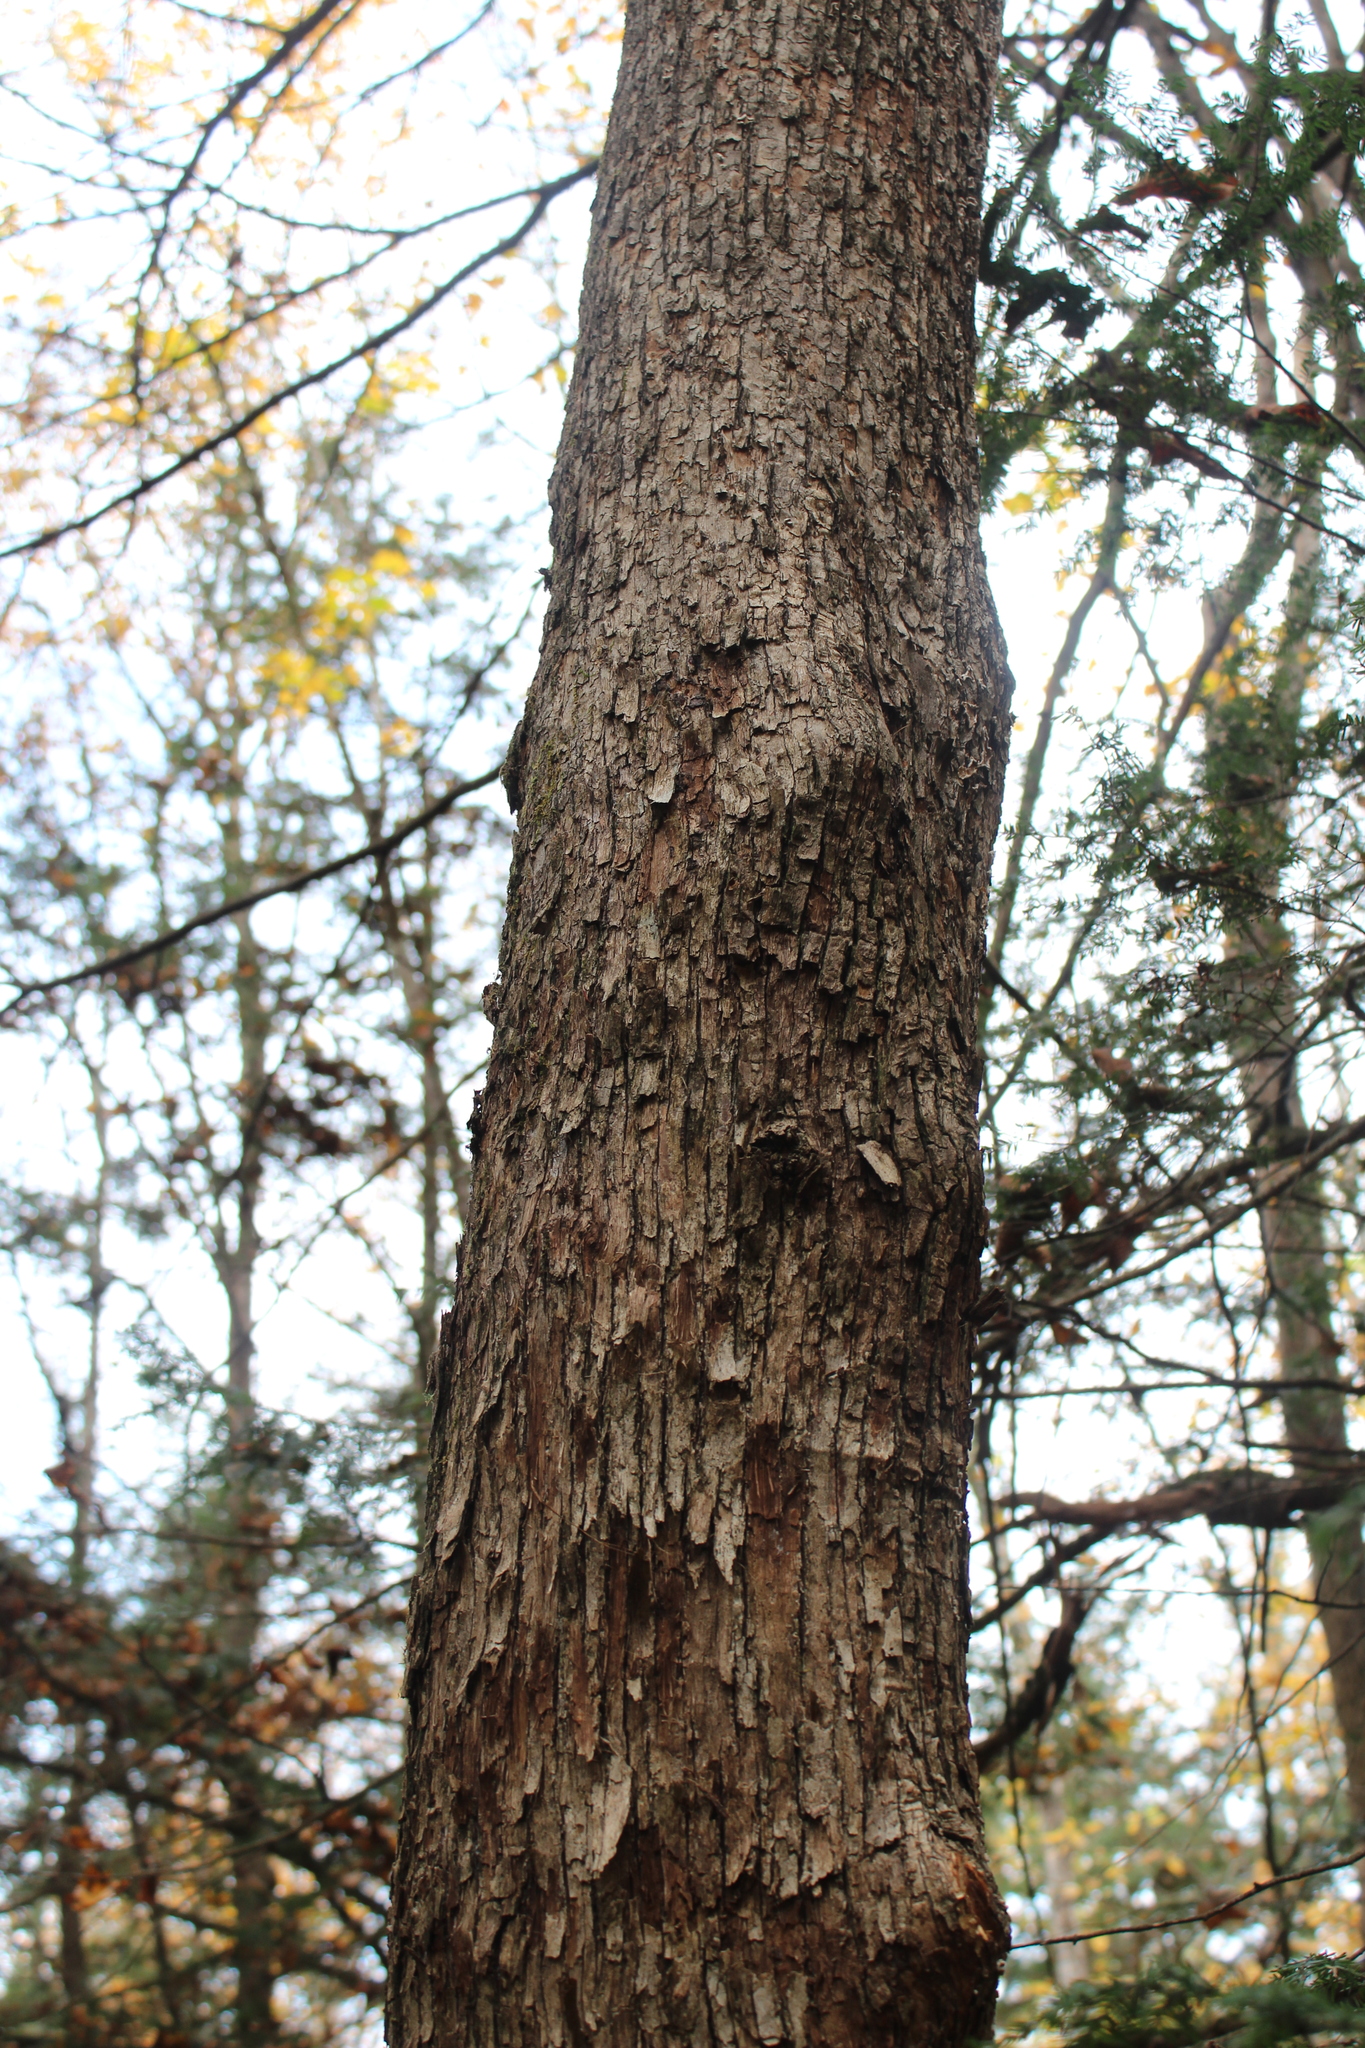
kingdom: Plantae
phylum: Tracheophyta
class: Magnoliopsida
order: Fagales
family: Betulaceae
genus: Ostrya
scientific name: Ostrya virginiana
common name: Ironwood
